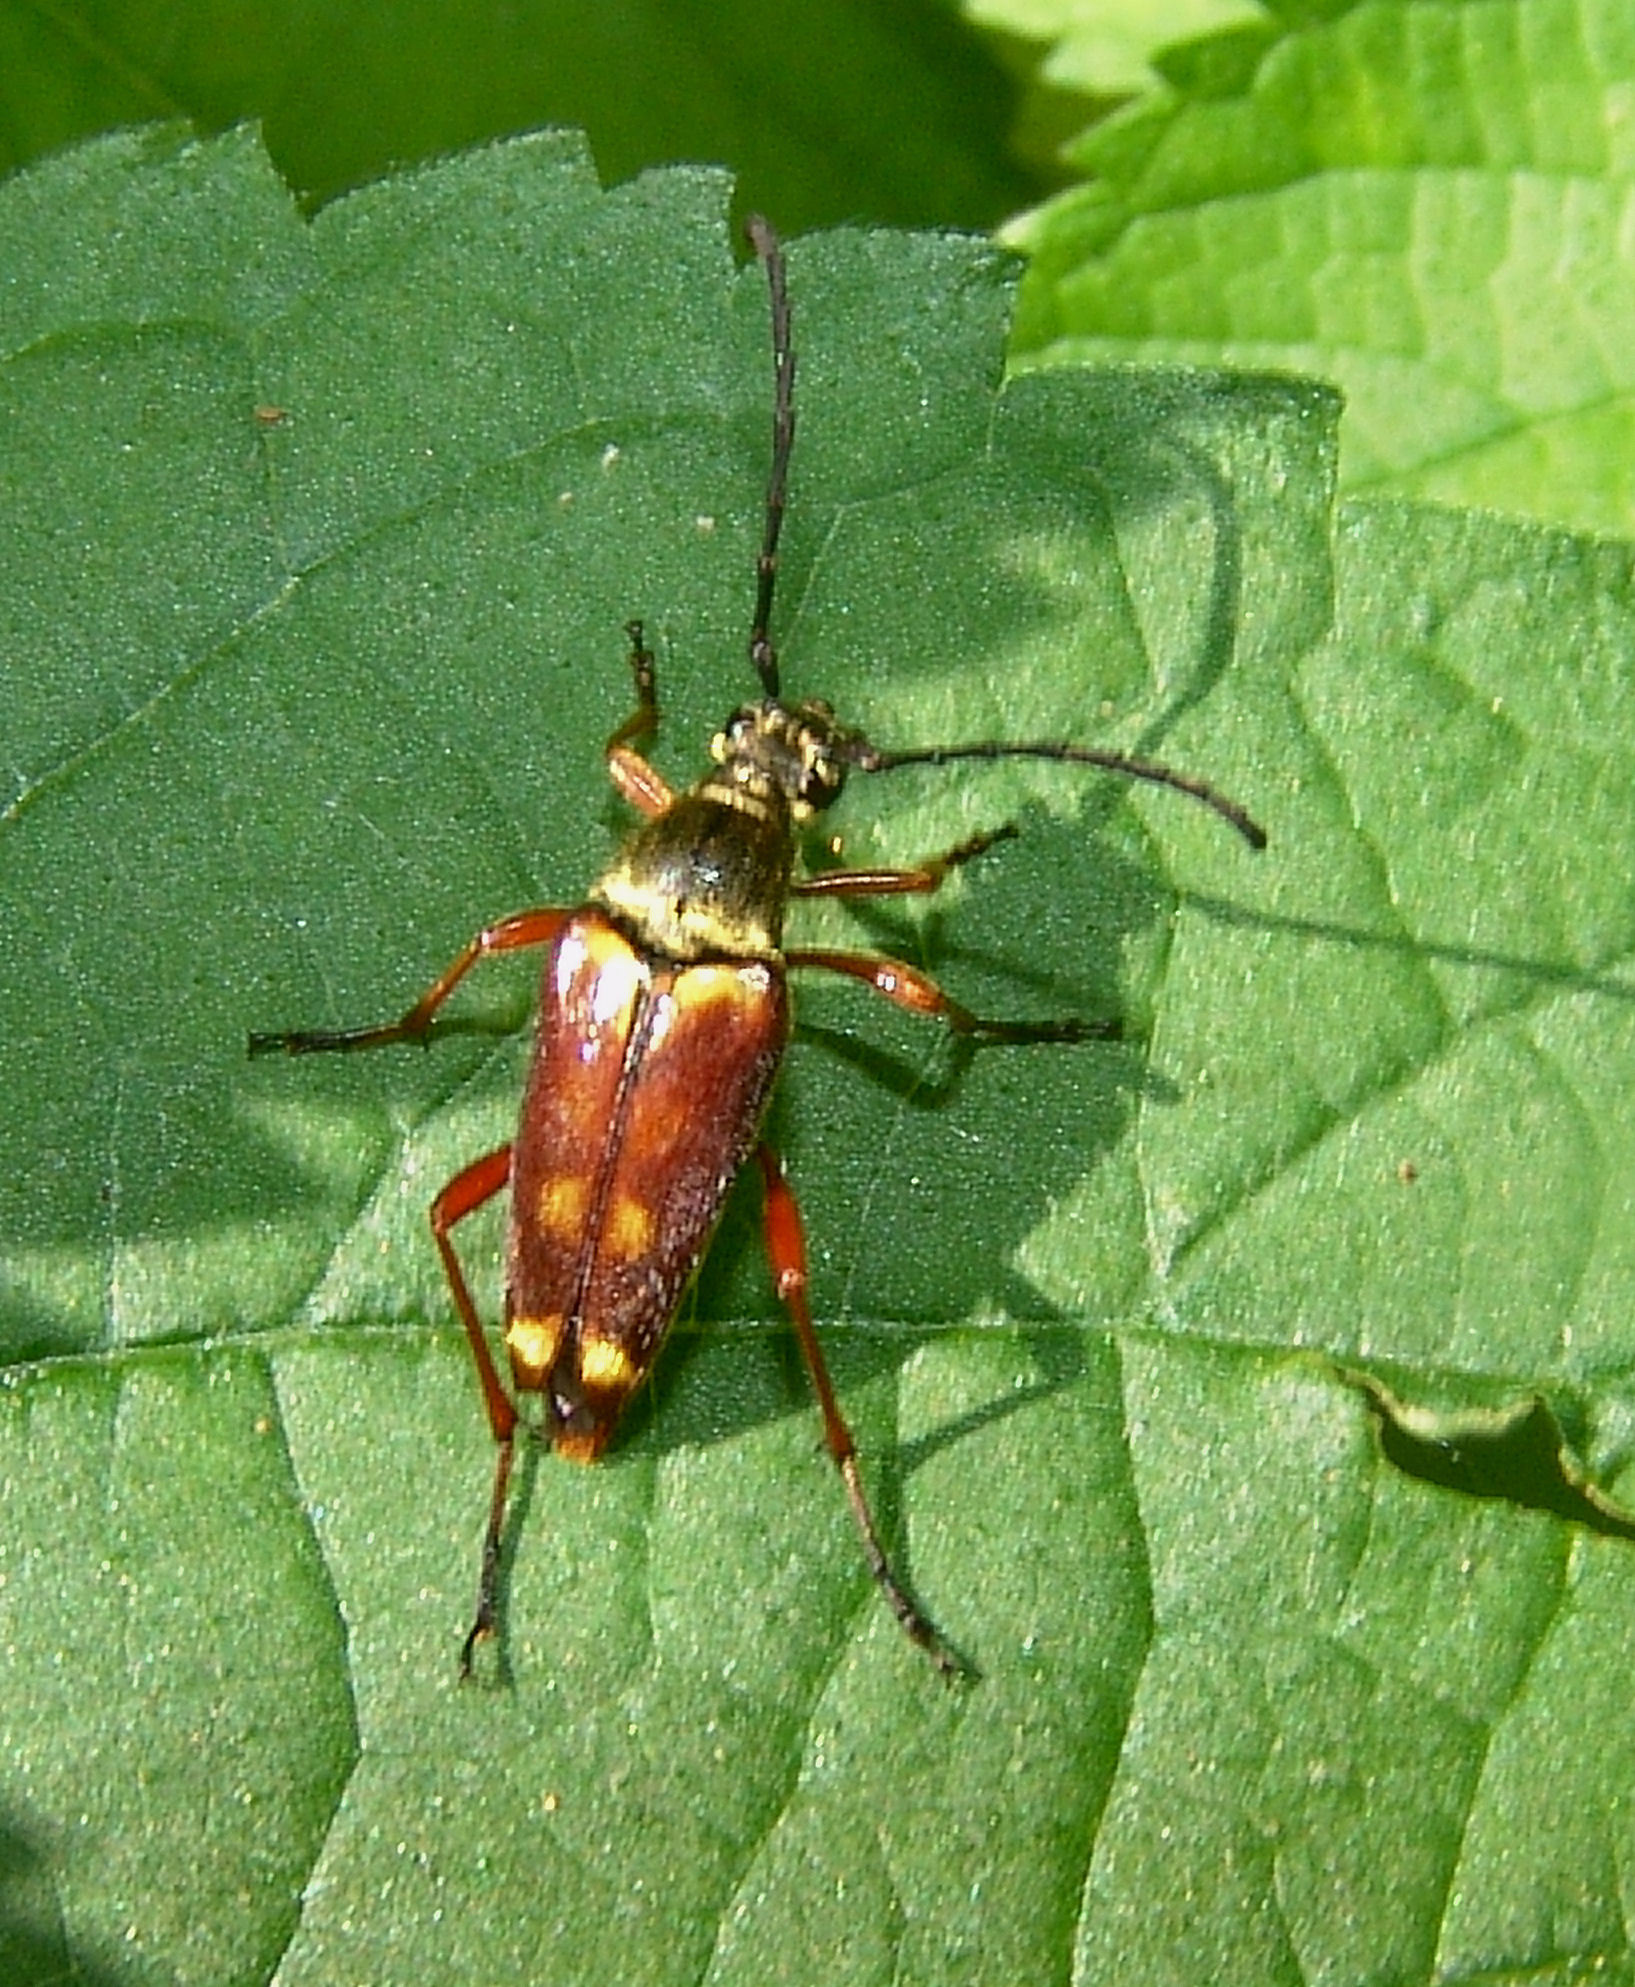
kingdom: Animalia
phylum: Arthropoda
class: Insecta
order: Coleoptera
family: Cerambycidae
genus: Typocerus
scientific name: Typocerus velutinus
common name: Banded longhorn beetle
